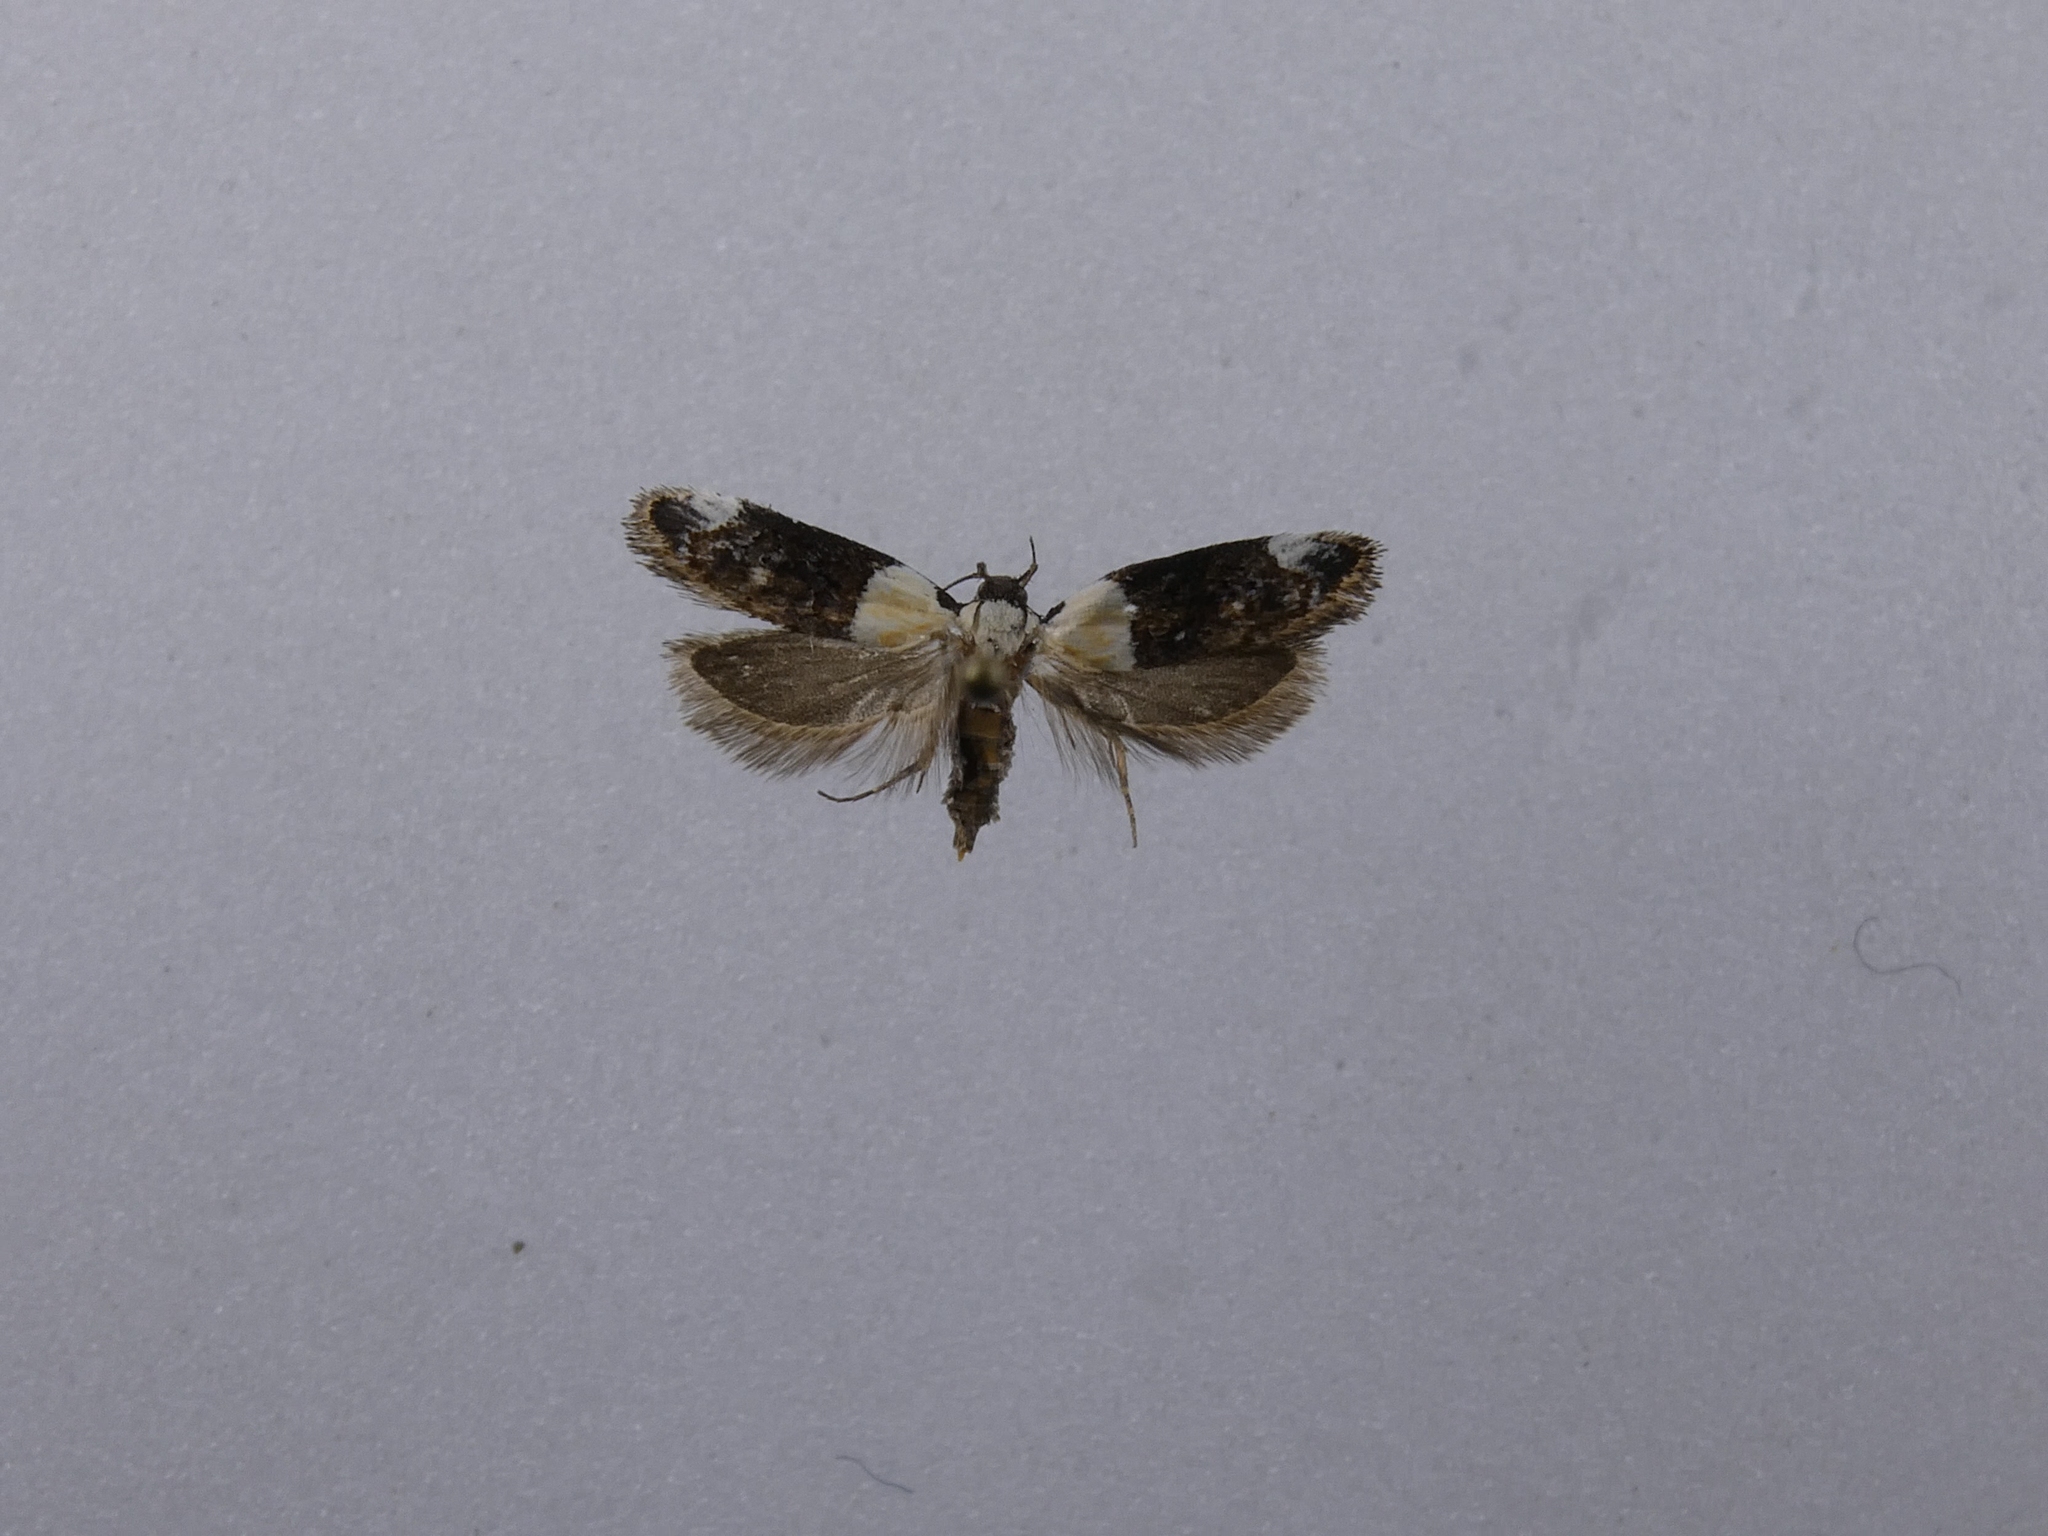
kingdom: Animalia
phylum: Arthropoda
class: Insecta
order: Lepidoptera
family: Oecophoridae
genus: Trachypepla
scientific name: Trachypepla euryleucota
